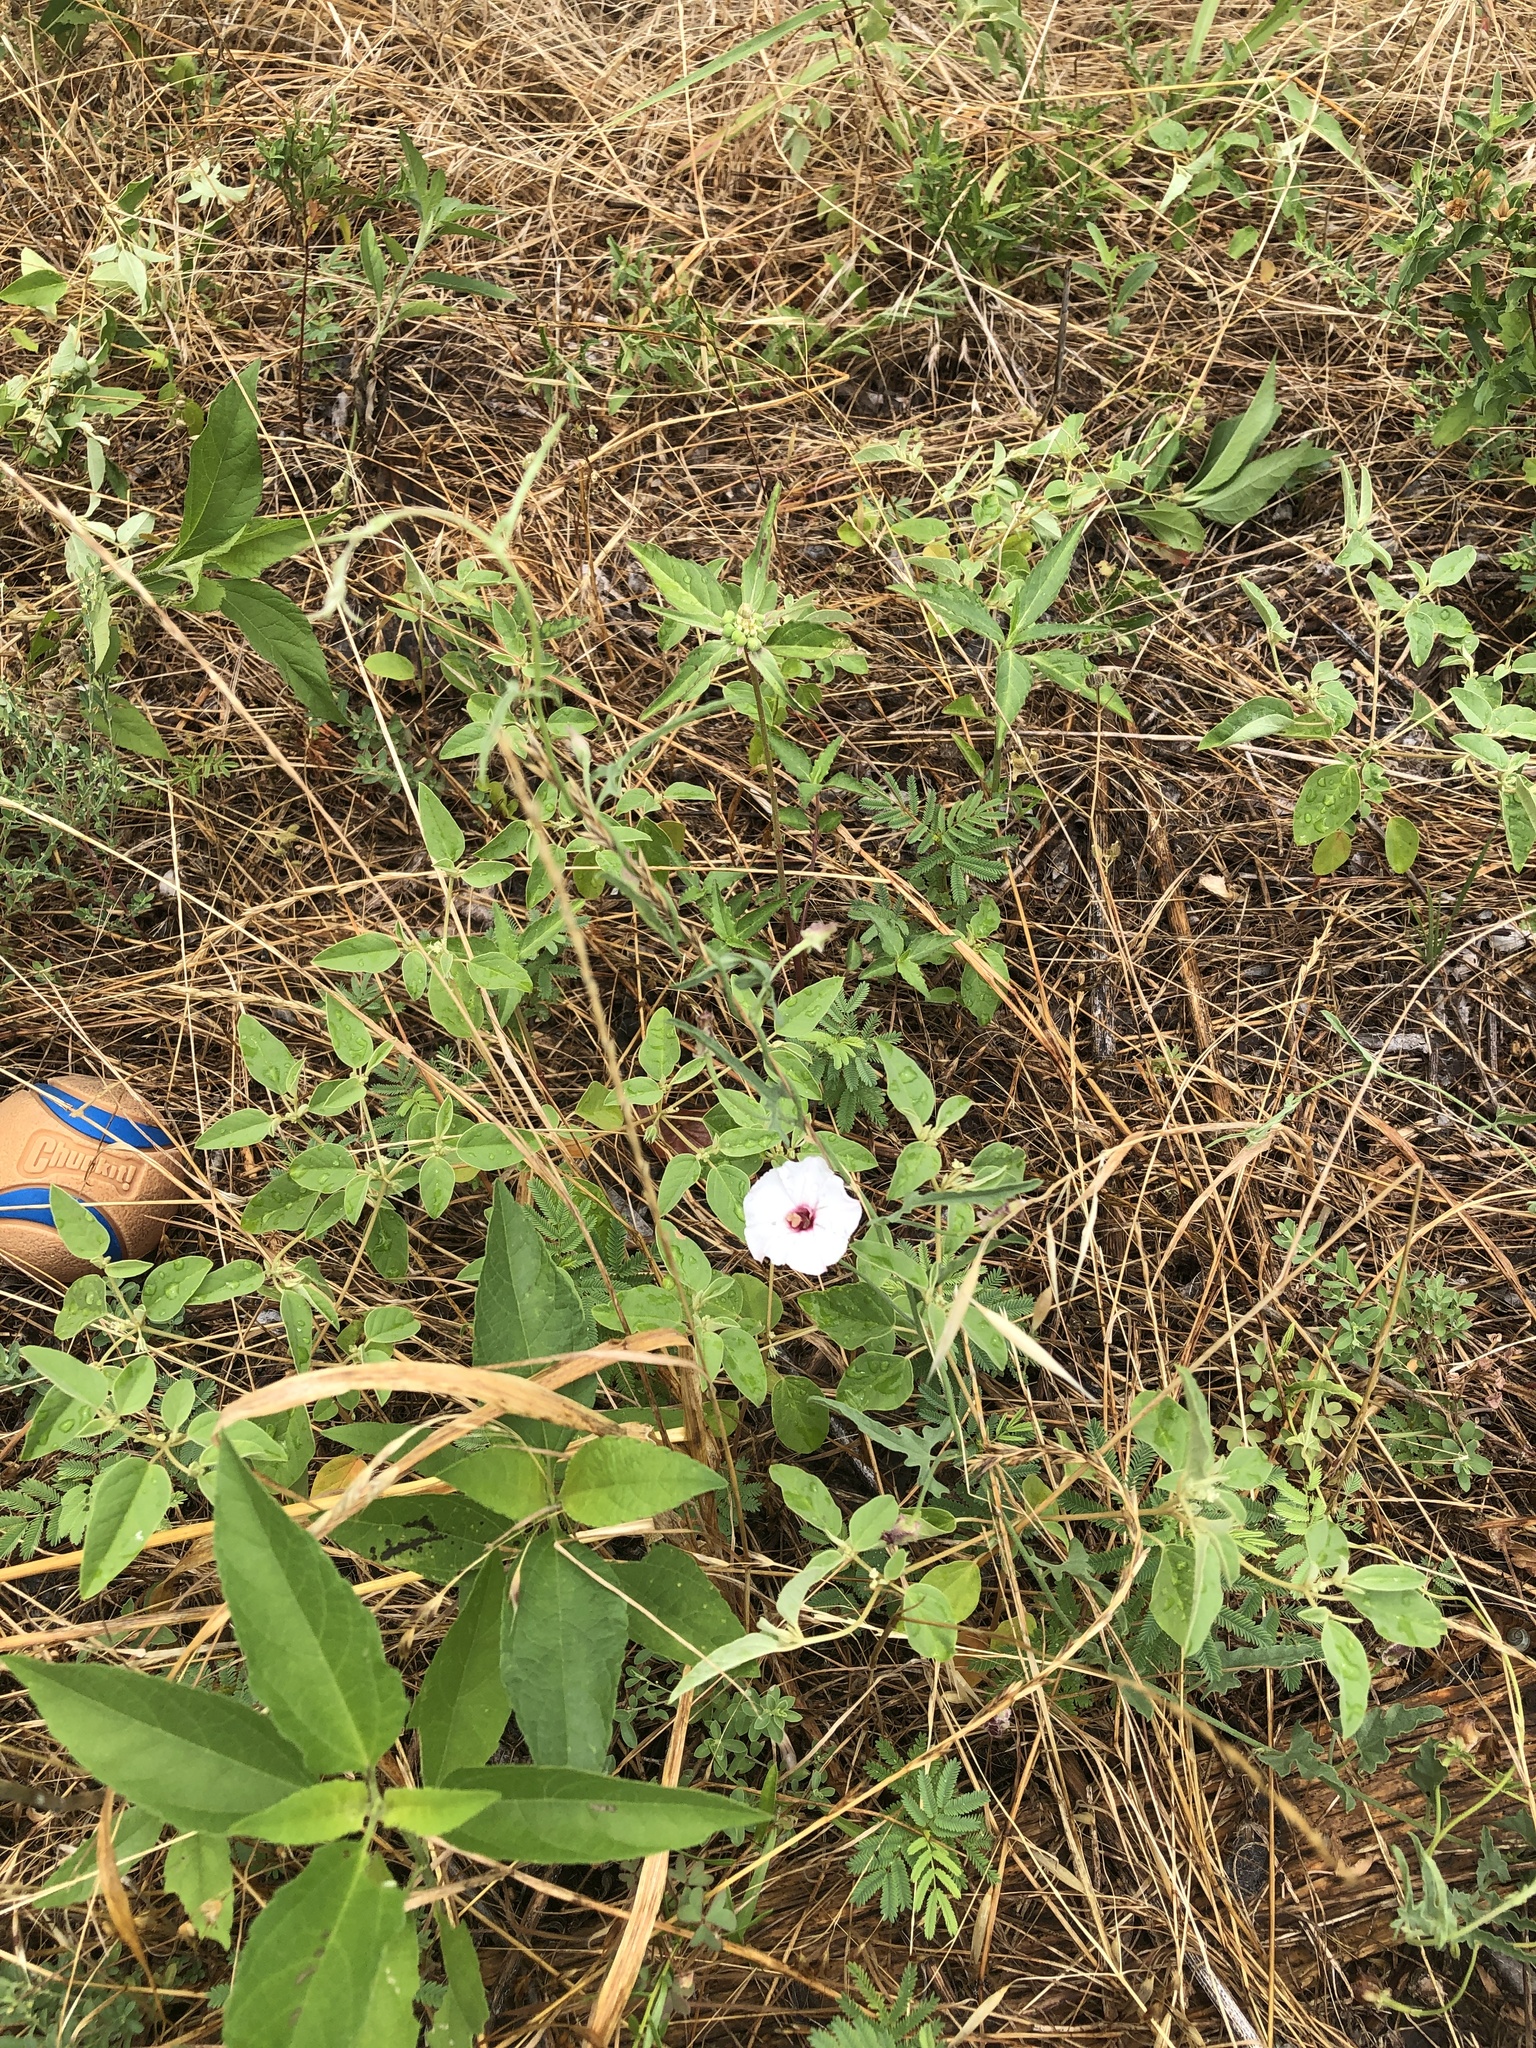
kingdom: Plantae
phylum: Tracheophyta
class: Magnoliopsida
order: Solanales
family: Convolvulaceae
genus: Convolvulus
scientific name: Convolvulus equitans
